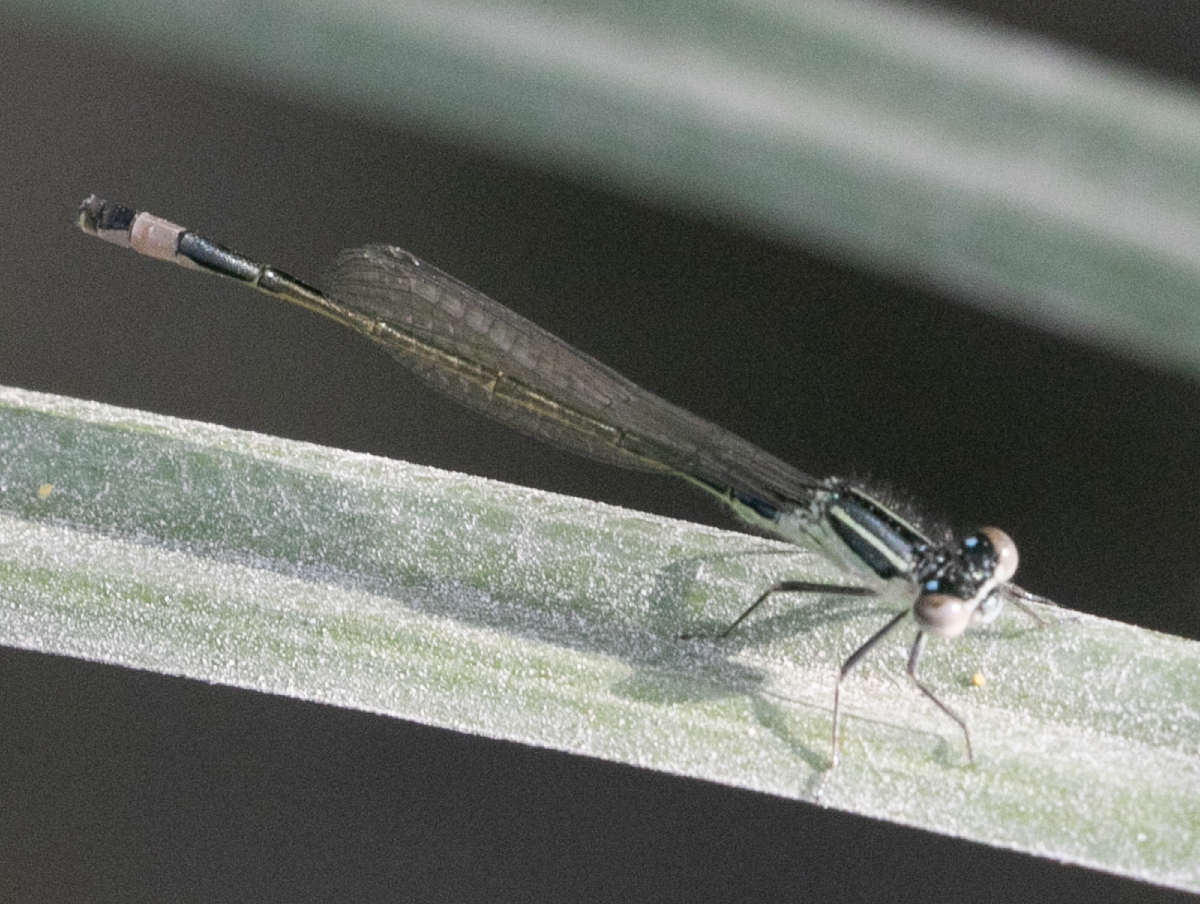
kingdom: Animalia
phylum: Arthropoda
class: Insecta
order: Odonata
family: Coenagrionidae
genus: Ischnura
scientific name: Ischnura elegans
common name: Blue-tailed damselfly
